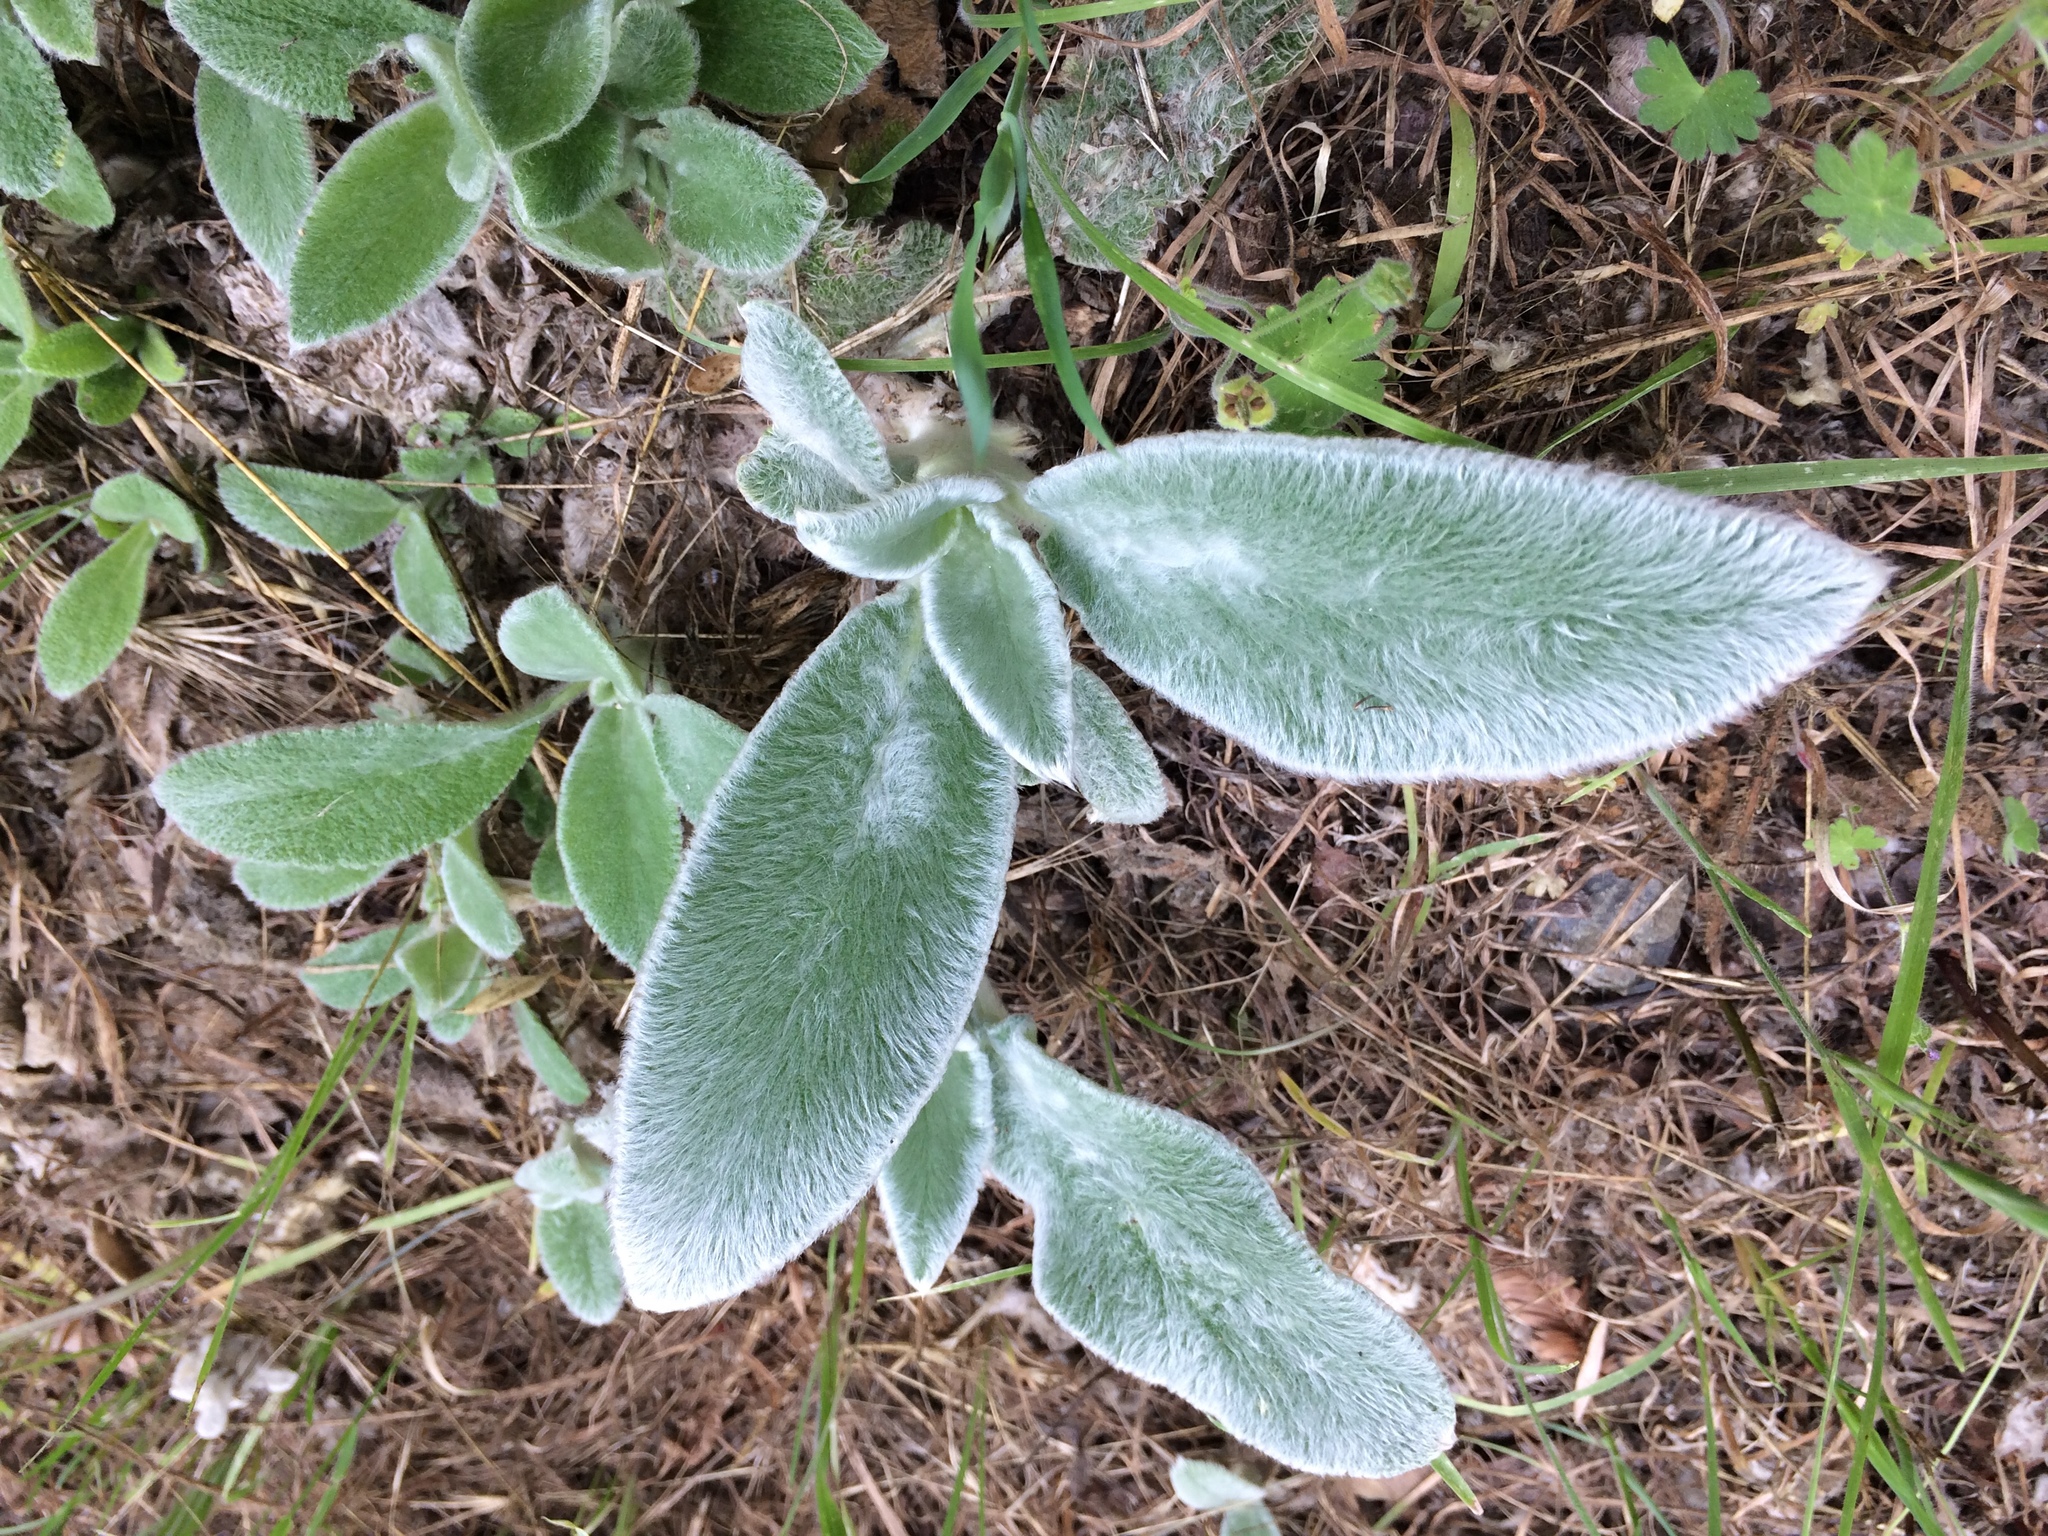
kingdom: Plantae
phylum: Tracheophyta
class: Magnoliopsida
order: Lamiales
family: Lamiaceae
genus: Stachys
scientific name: Stachys byzantina
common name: Lamb's-ear
